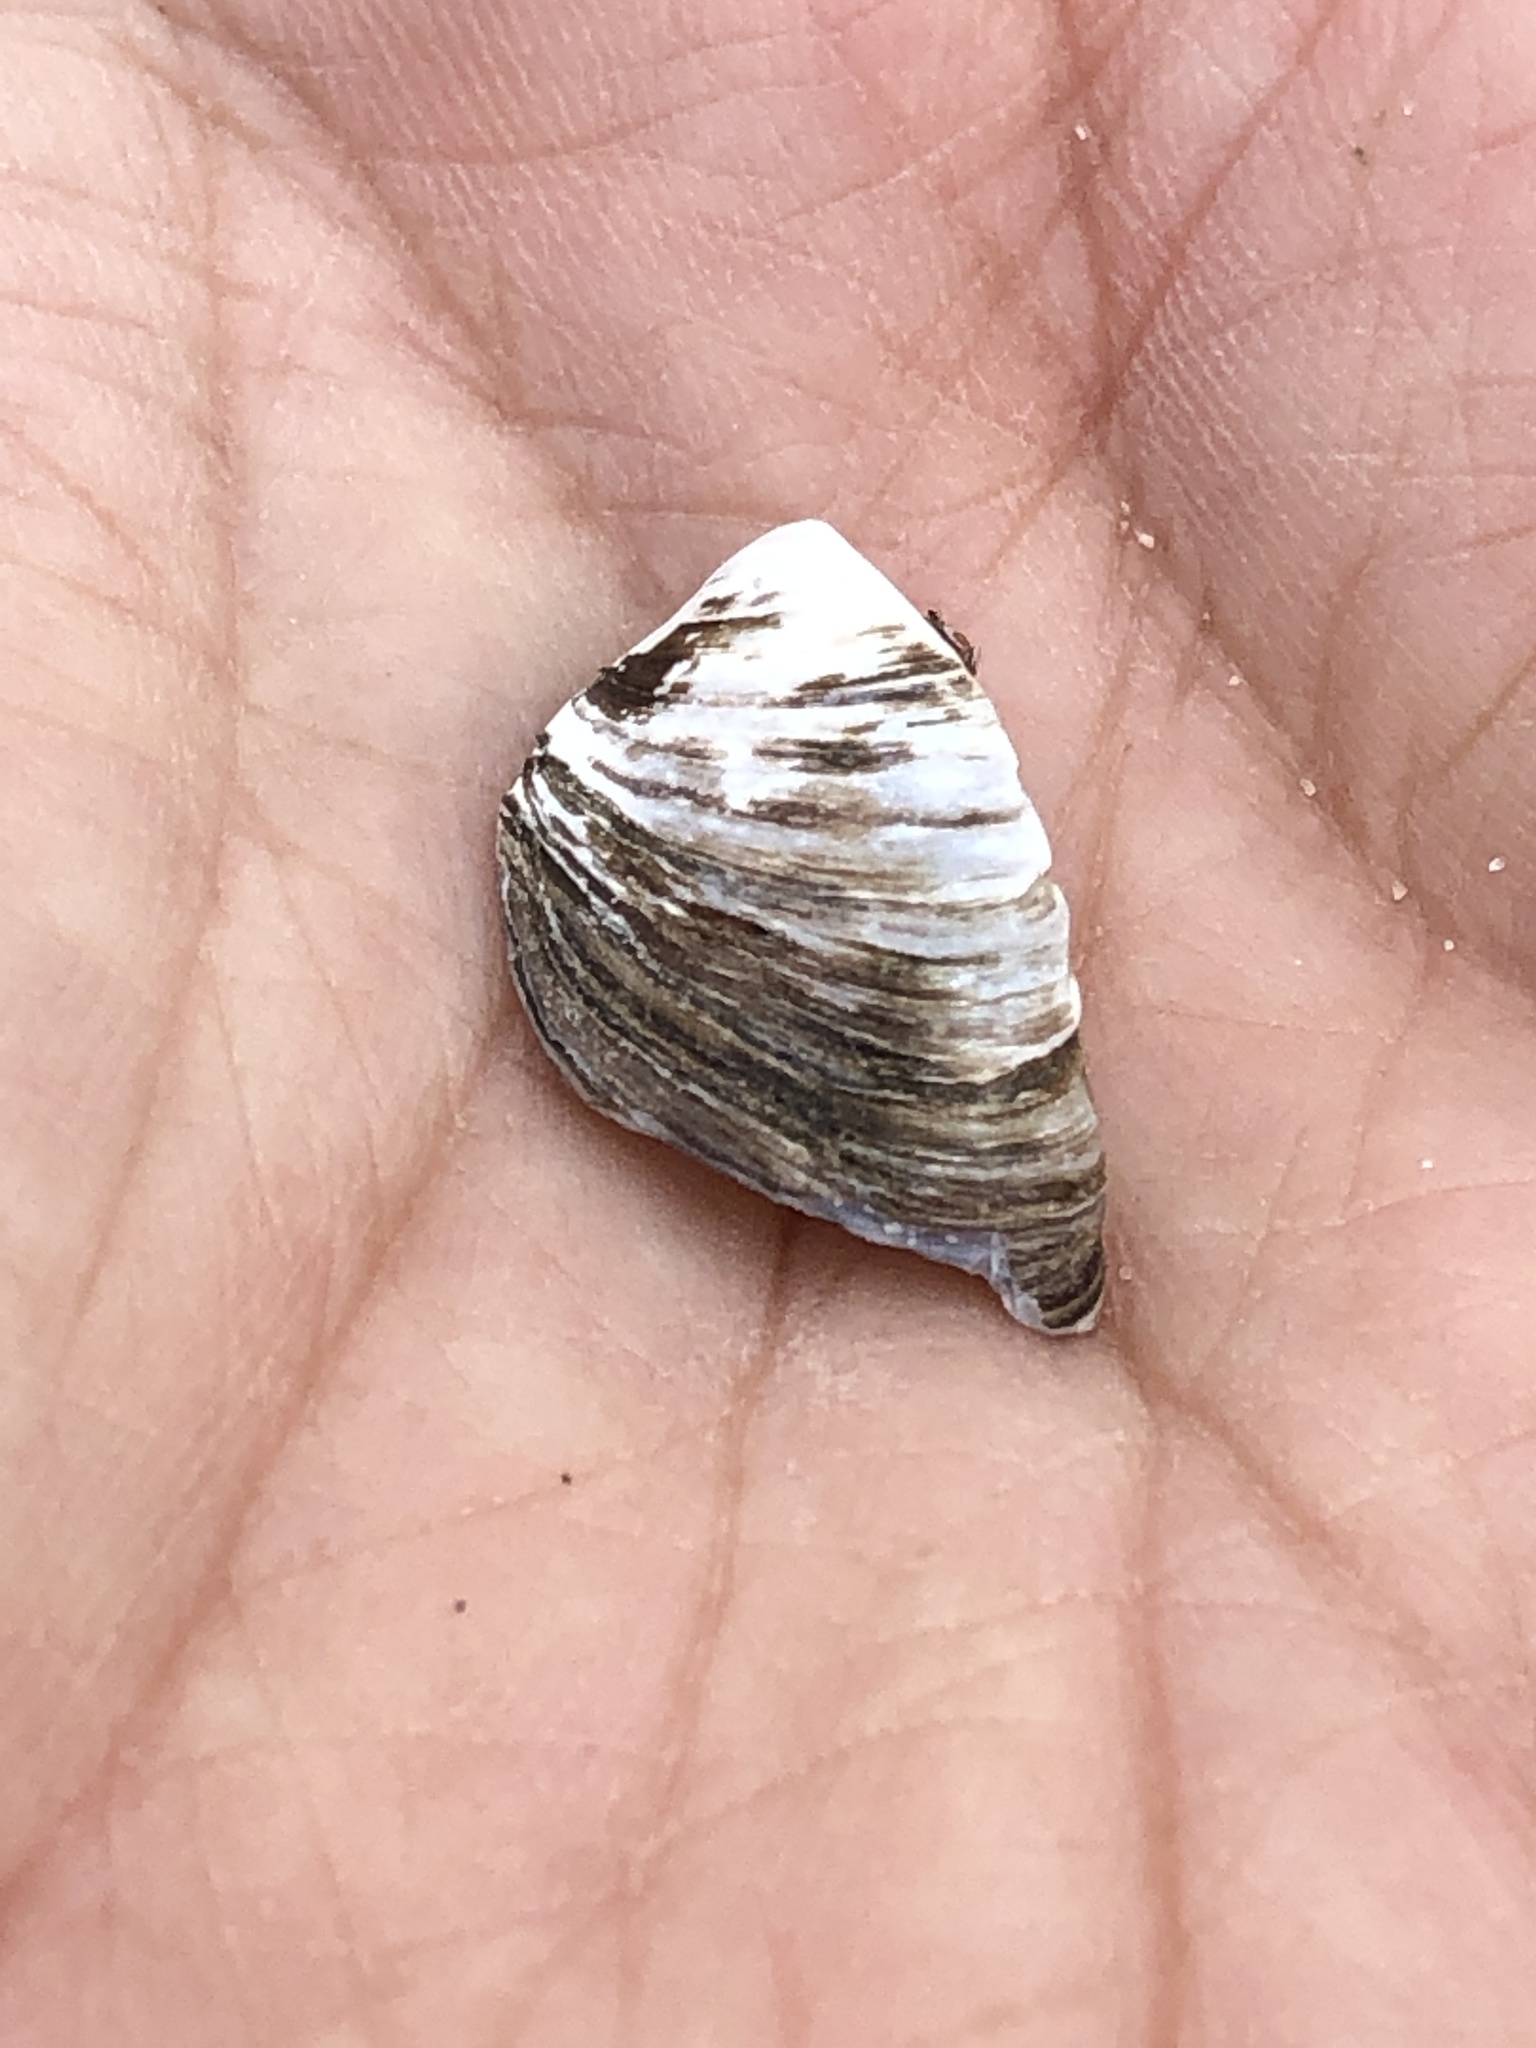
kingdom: Animalia
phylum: Mollusca
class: Bivalvia
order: Myida
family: Dreissenidae
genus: Dreissena
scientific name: Dreissena polymorpha
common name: Zebra mussel
